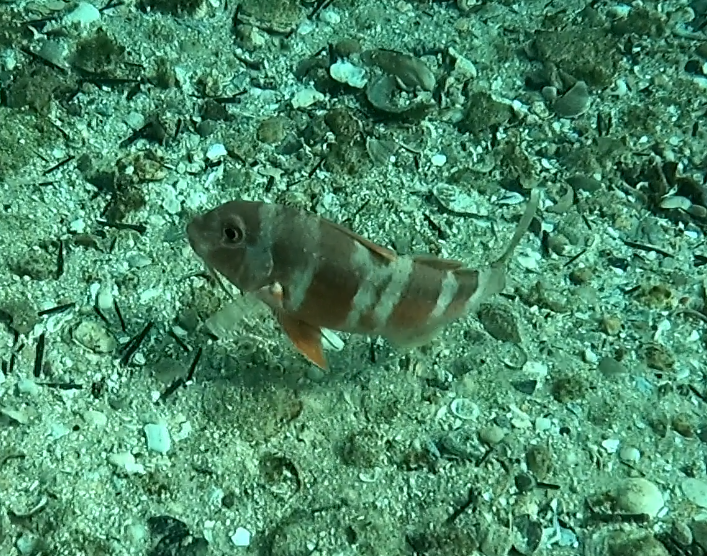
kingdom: Animalia
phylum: Chordata
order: Perciformes
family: Mullidae
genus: Upeneichthys
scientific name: Upeneichthys lineatus
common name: Red mullet
